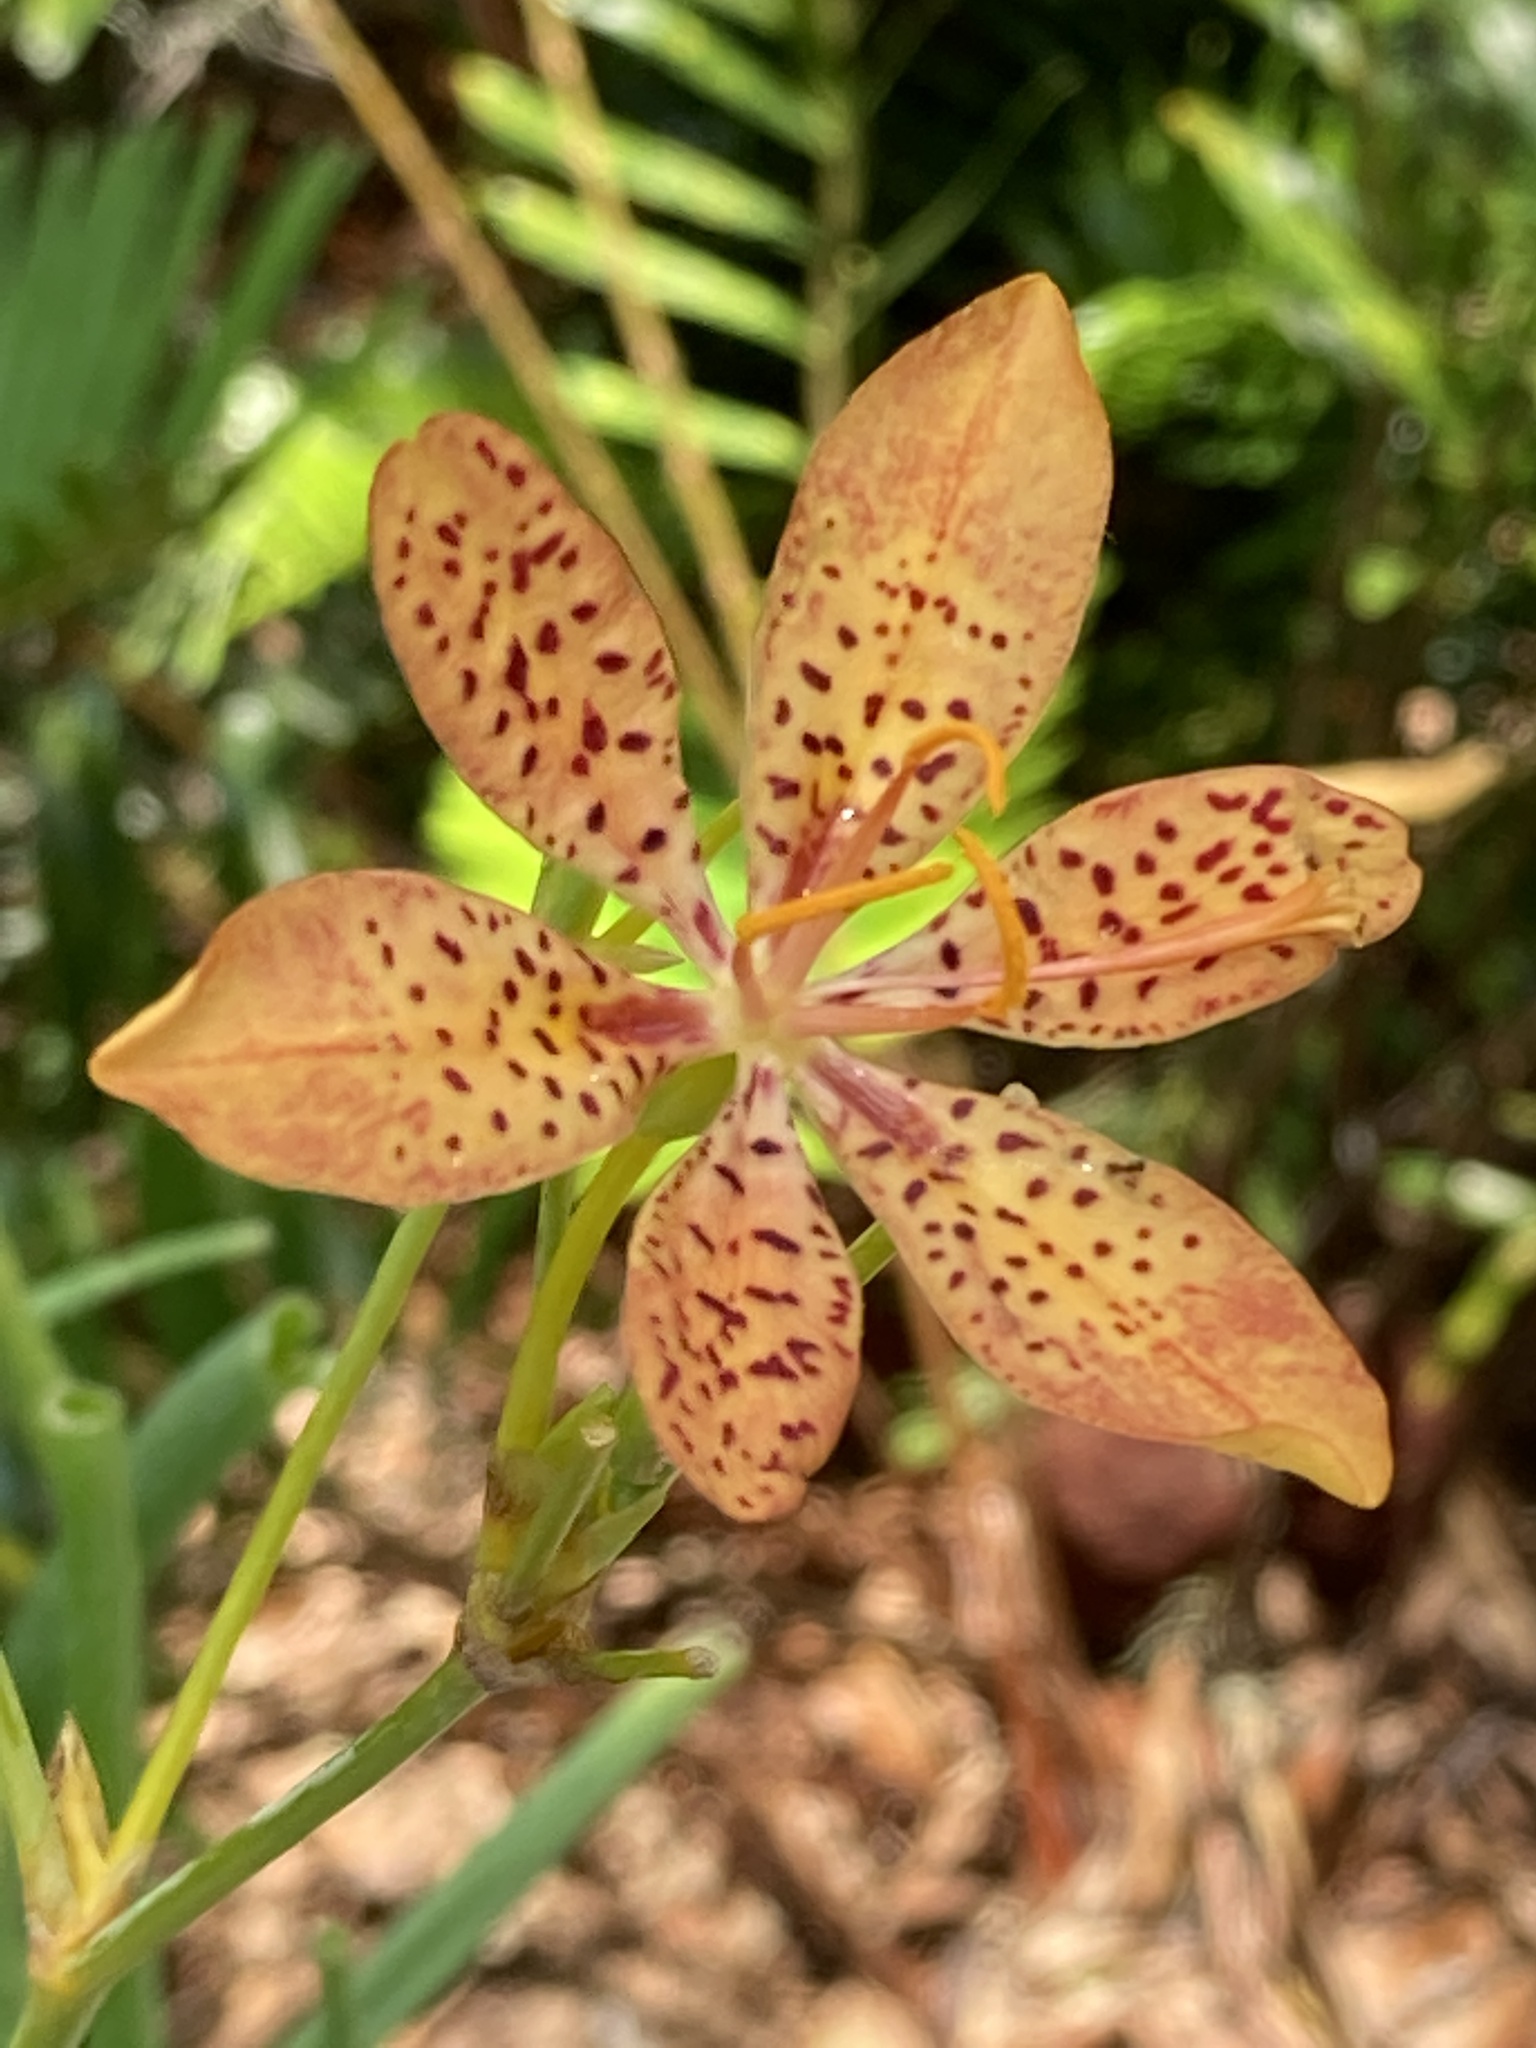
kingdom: Plantae
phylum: Tracheophyta
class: Liliopsida
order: Asparagales
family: Iridaceae
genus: Iris
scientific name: Iris domestica
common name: Belamcanda
